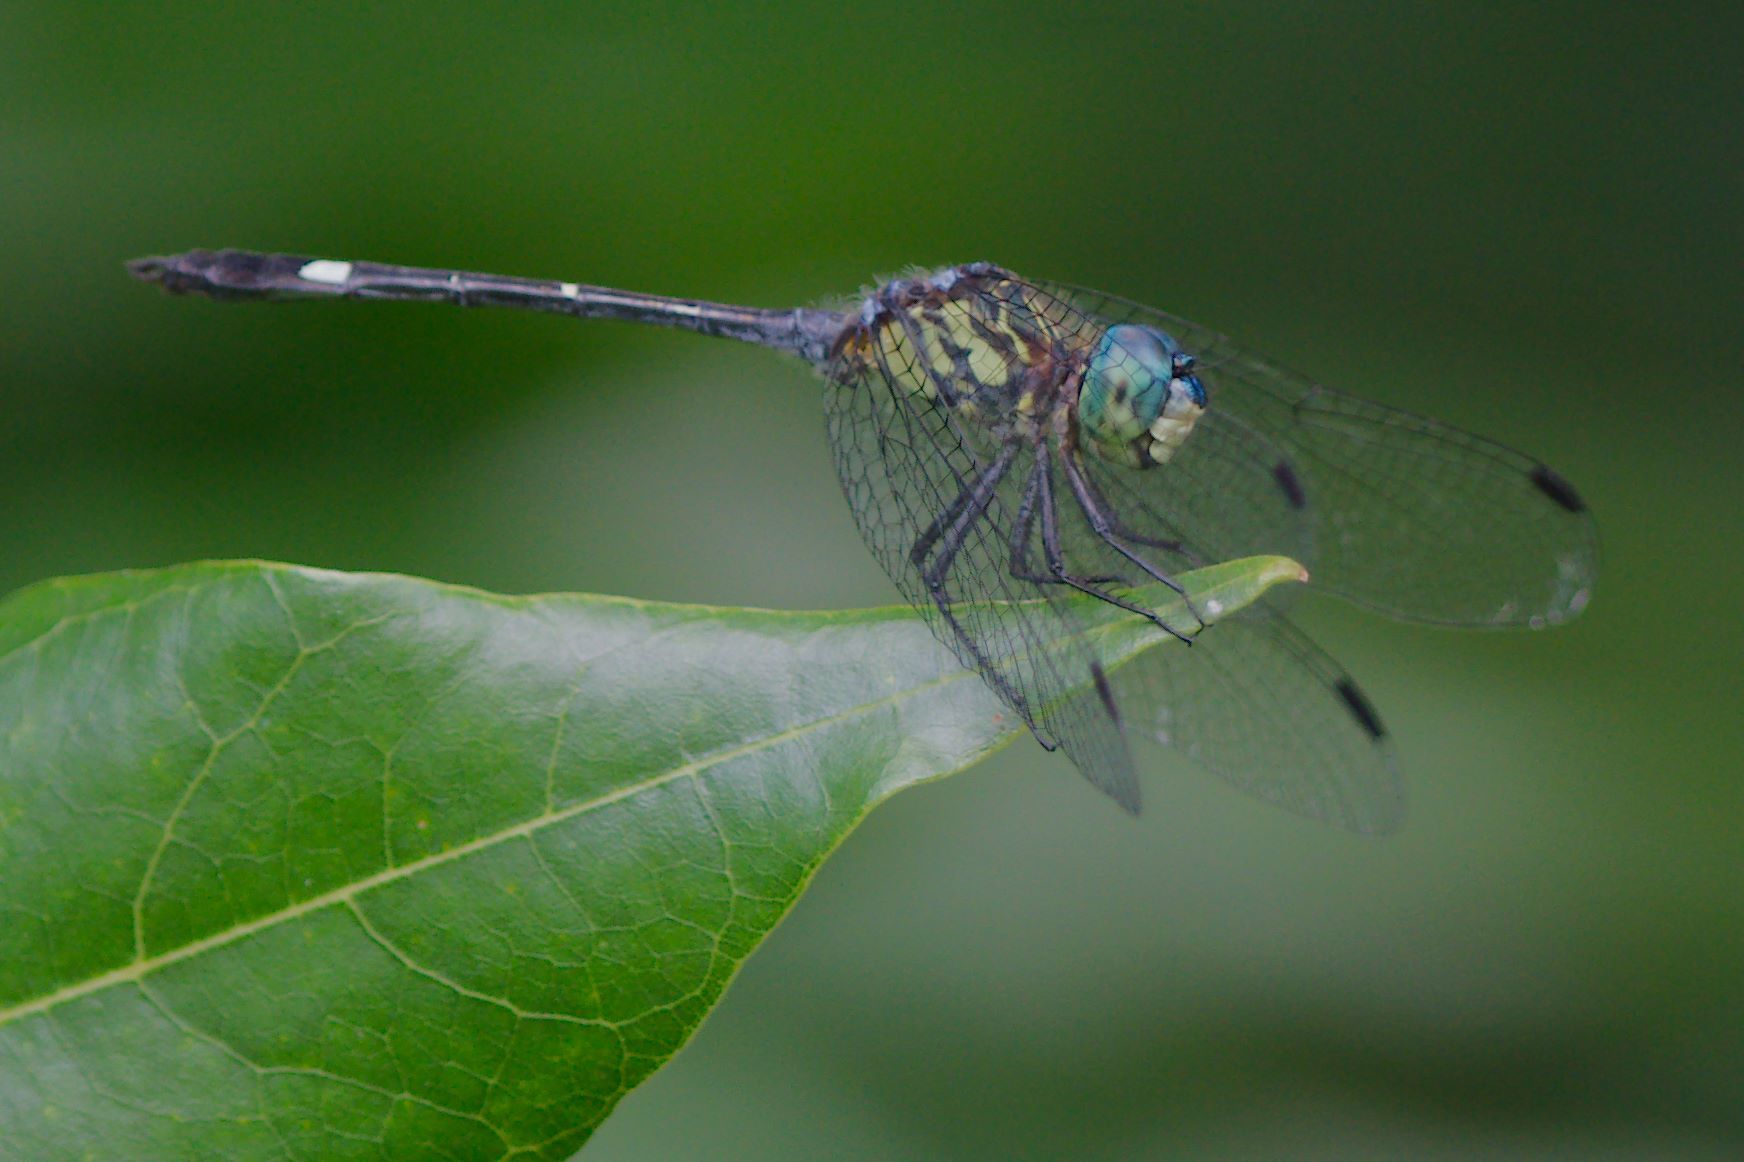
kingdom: Animalia
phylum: Arthropoda
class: Insecta
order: Odonata
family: Libellulidae
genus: Micrathyria
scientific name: Micrathyria didyma
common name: Three-striped dasher
